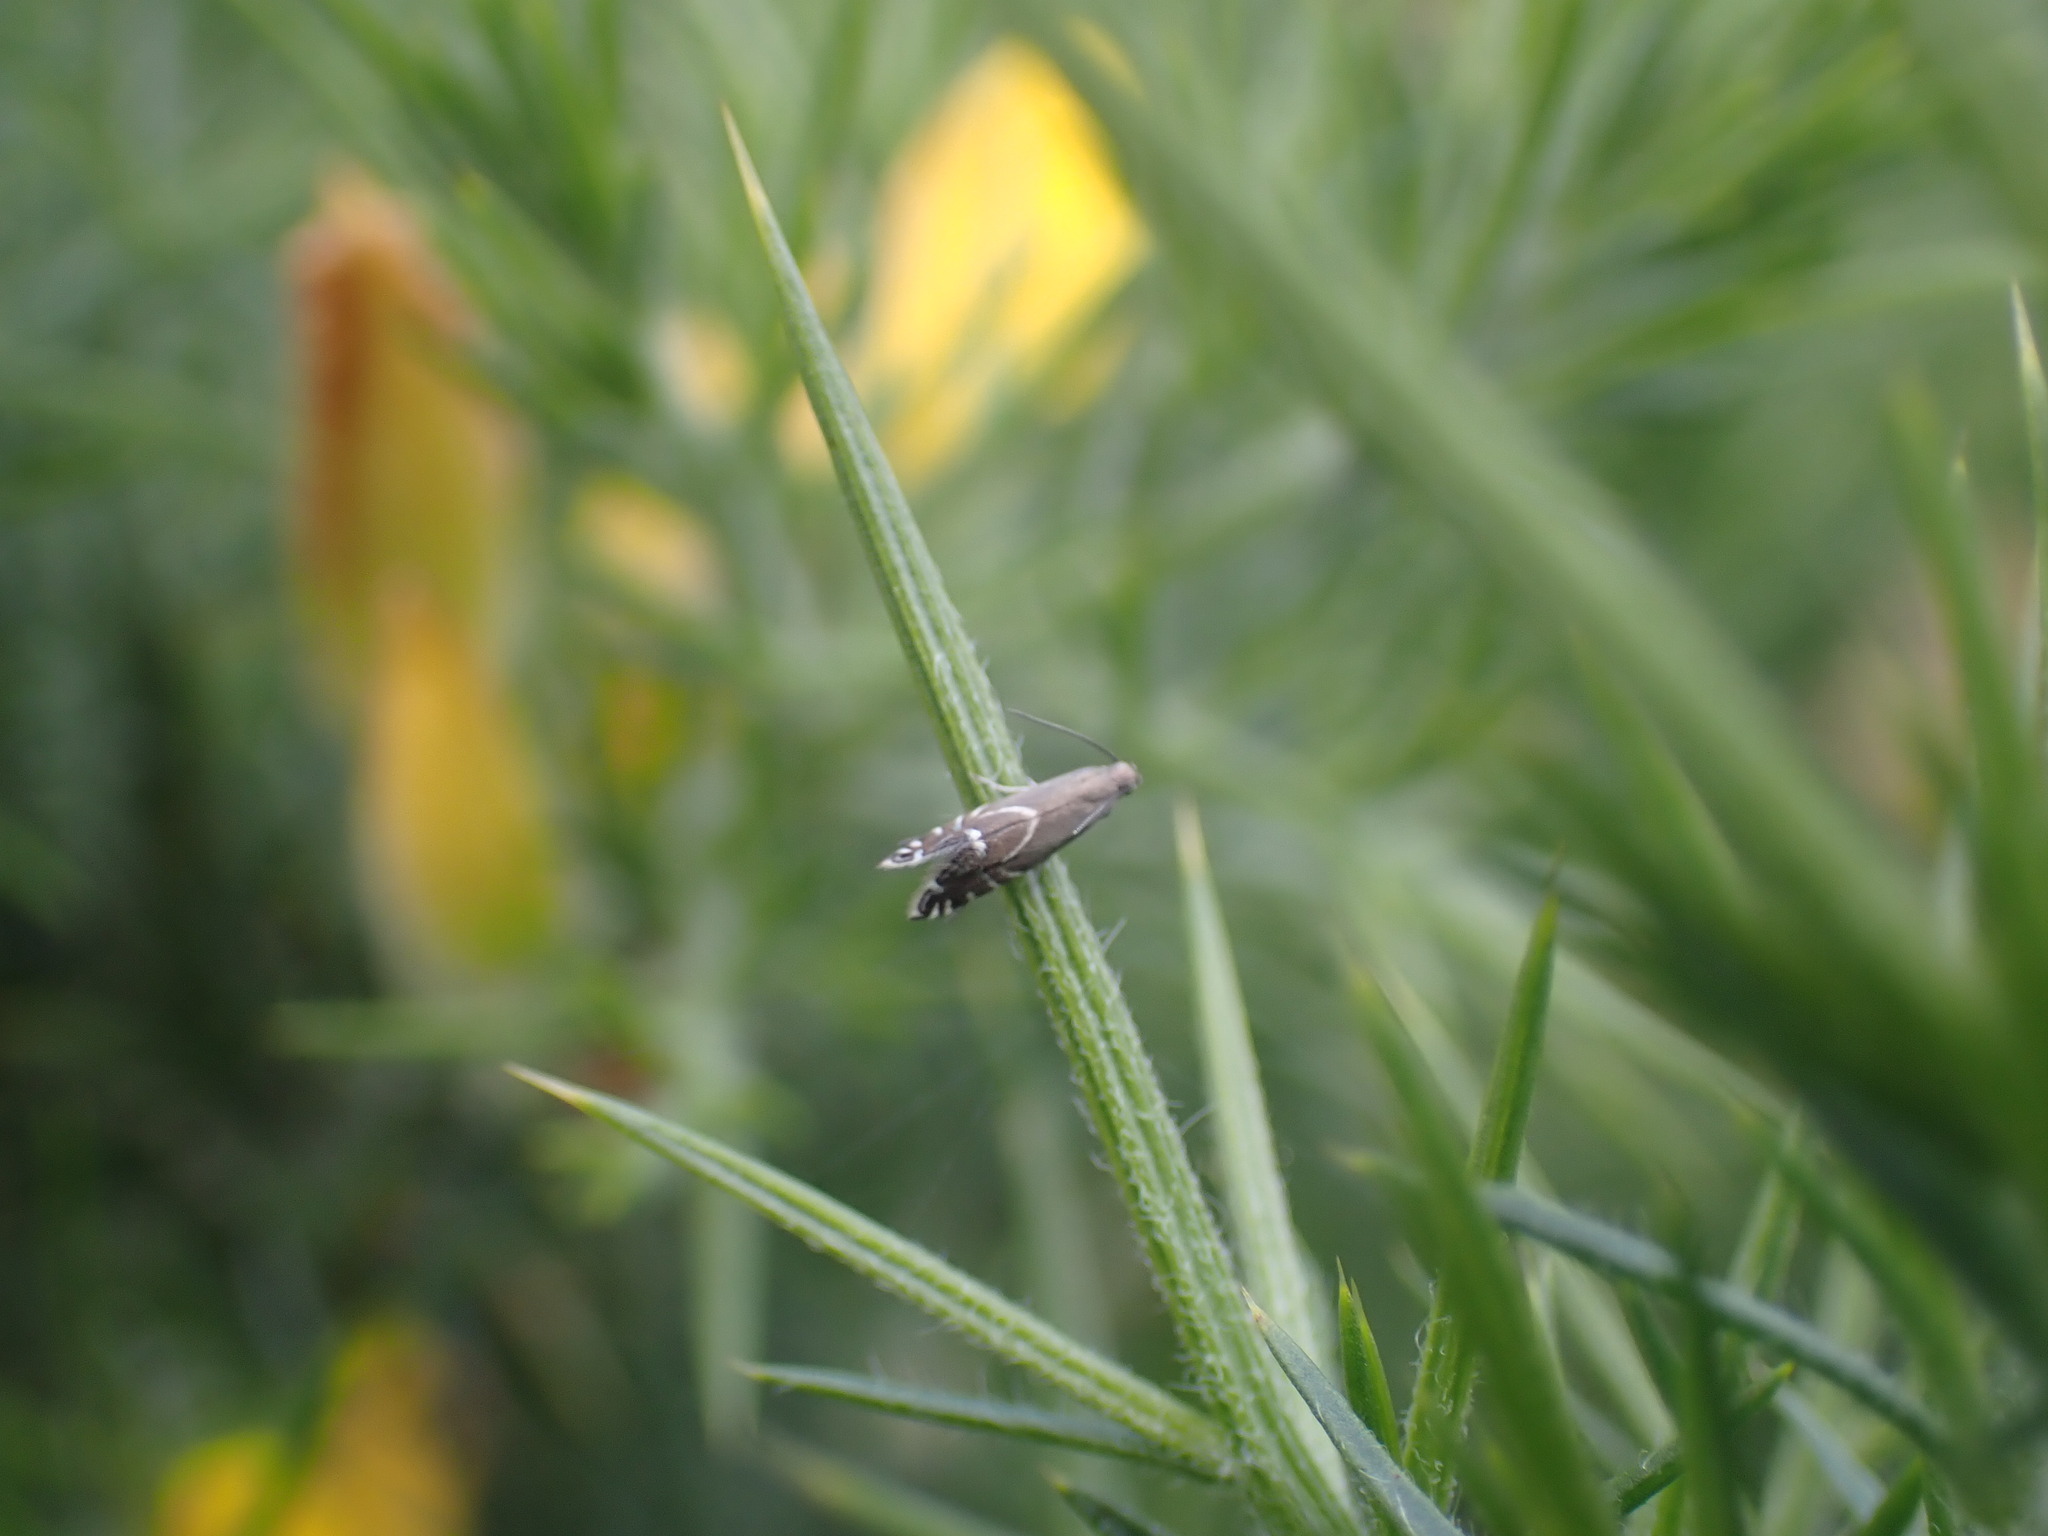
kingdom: Animalia
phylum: Arthropoda
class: Insecta
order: Lepidoptera
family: Glyphipterigidae
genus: Glyphipterix
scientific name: Glyphipterix simpliciella
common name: Cocksfoot moth
